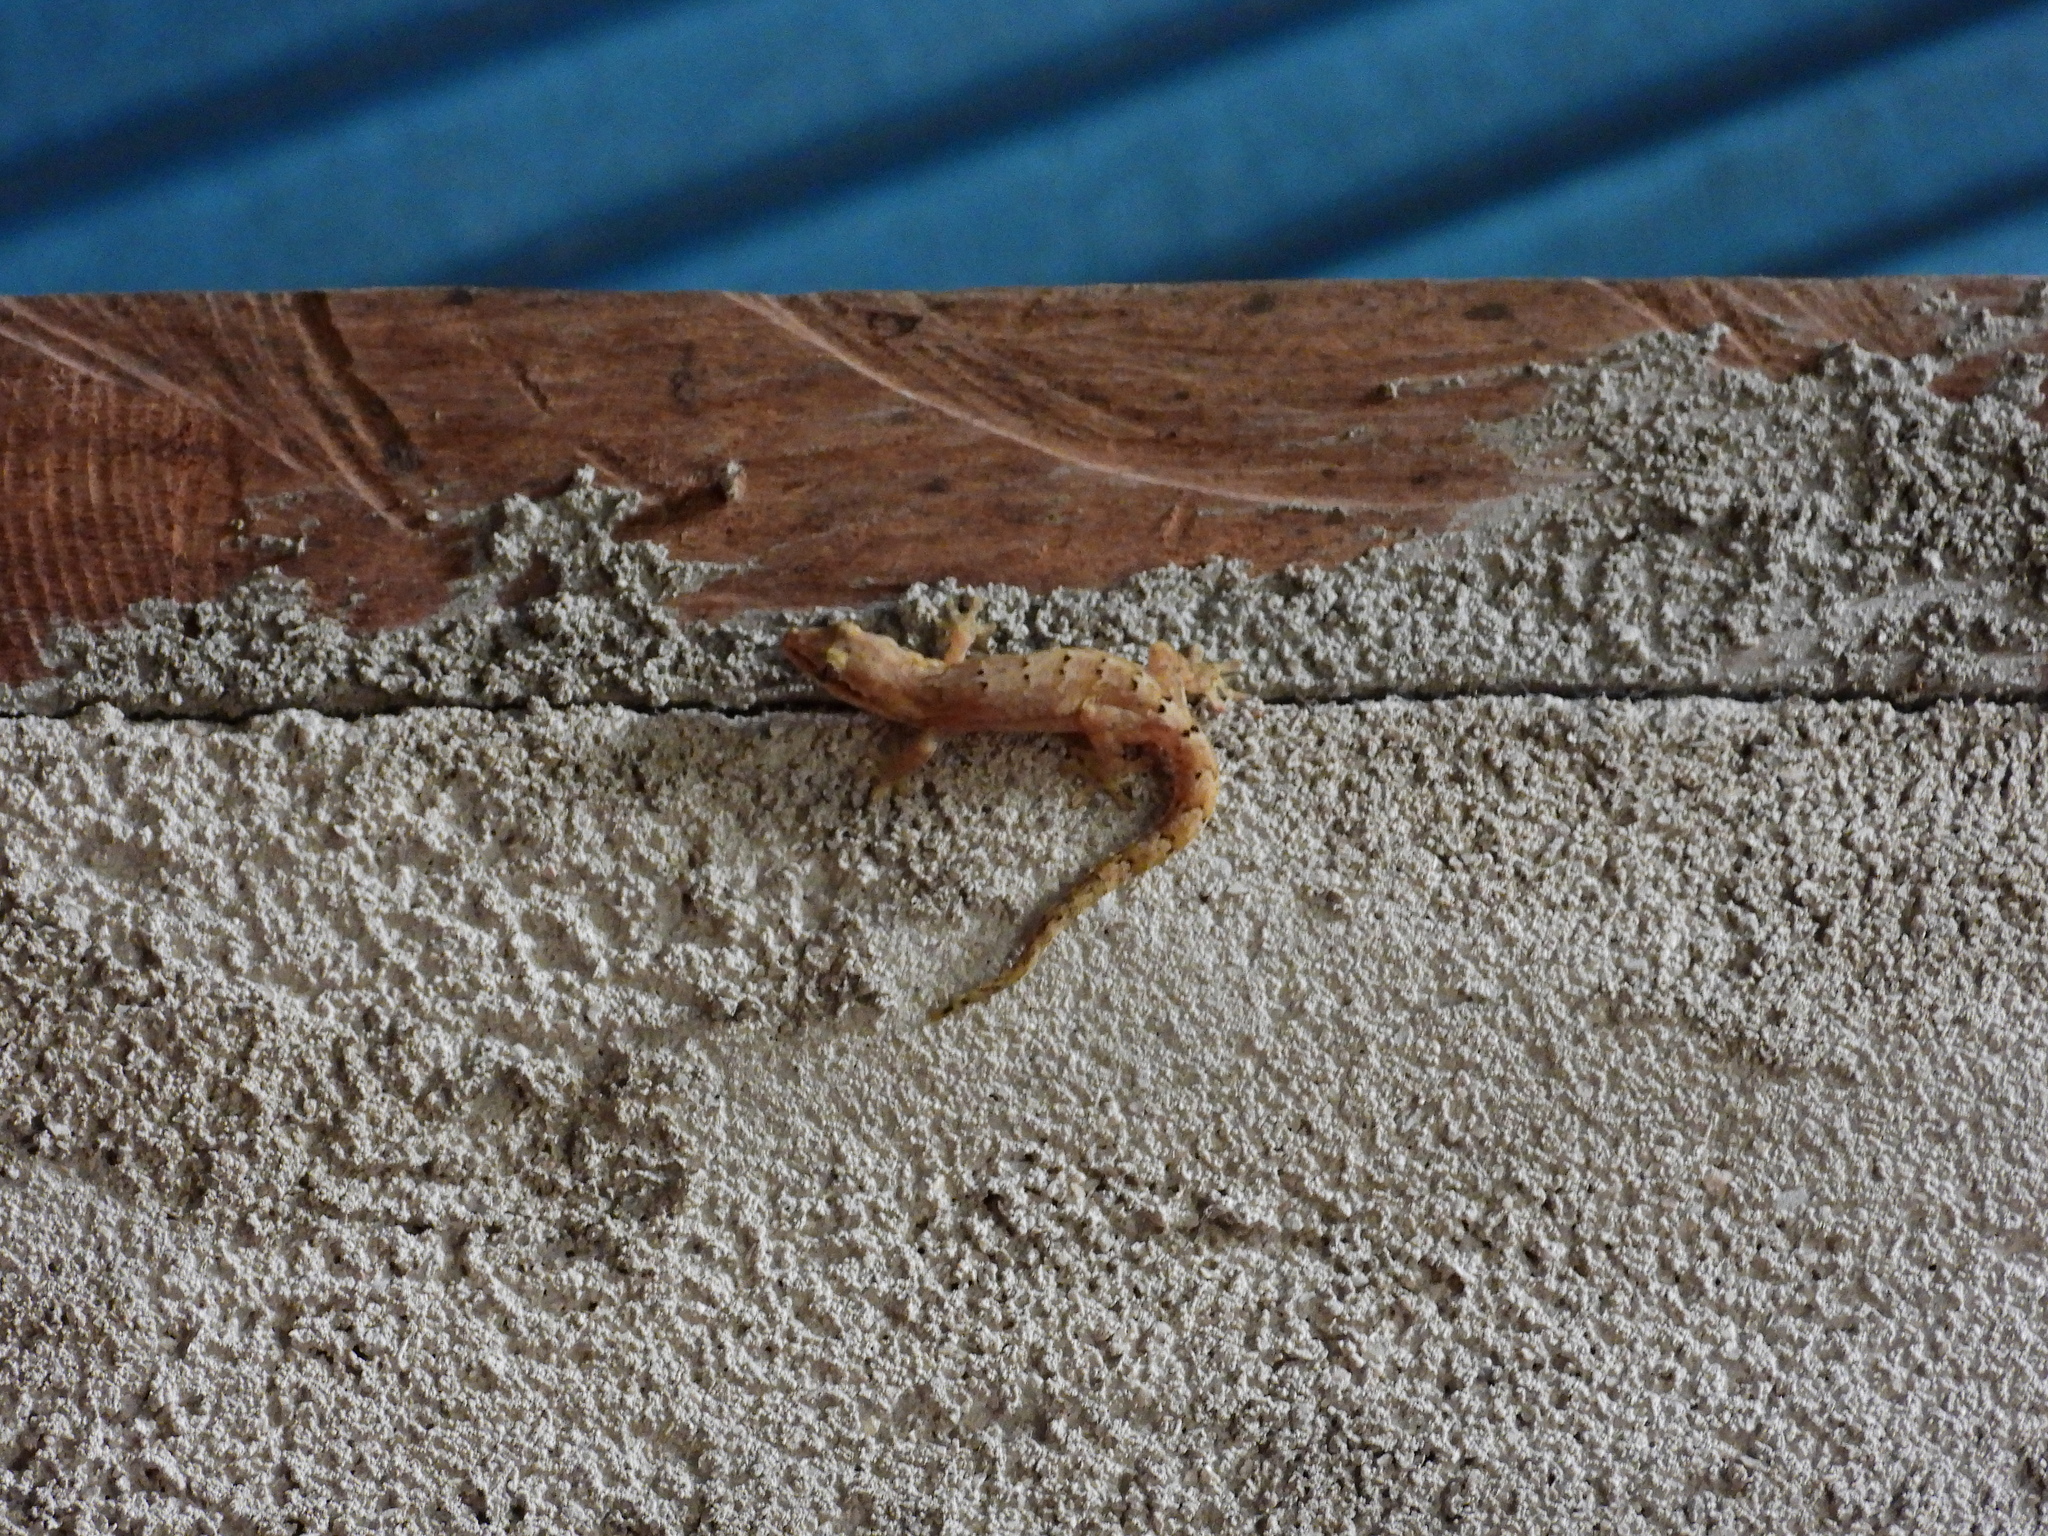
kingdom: Animalia
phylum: Chordata
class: Squamata
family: Gekkonidae
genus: Lepidodactylus
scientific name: Lepidodactylus lugubris
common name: Mourning gecko
